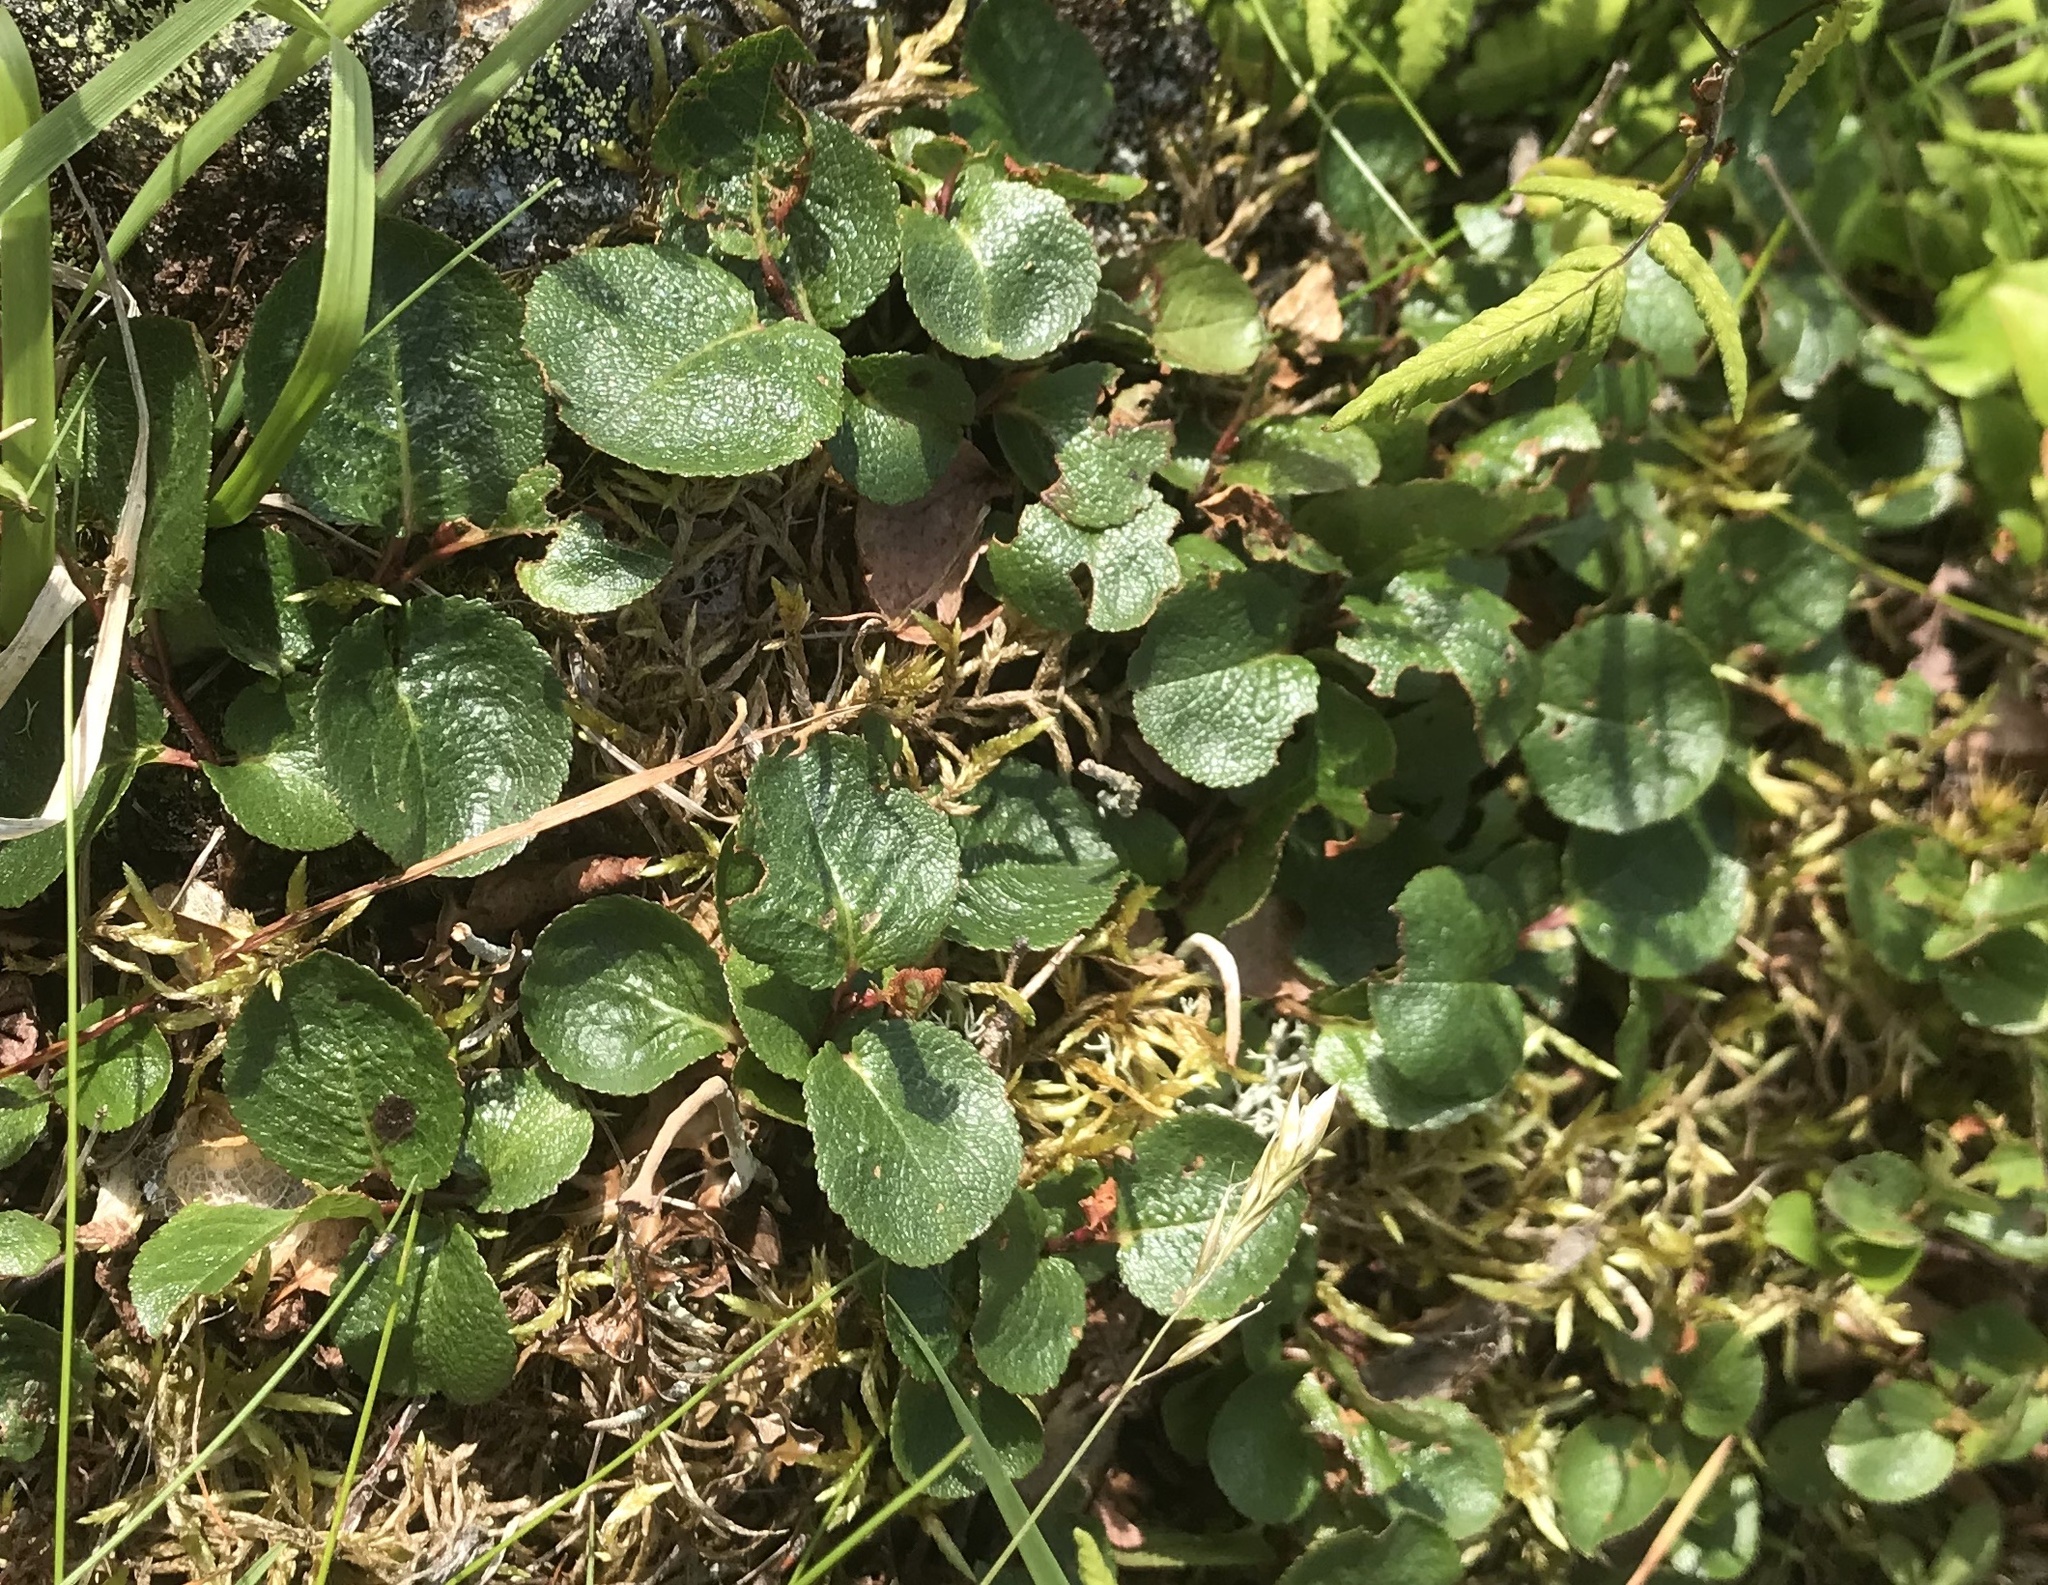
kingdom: Plantae
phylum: Tracheophyta
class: Magnoliopsida
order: Malpighiales
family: Salicaceae
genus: Salix
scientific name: Salix herbacea
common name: Dwarf willow
